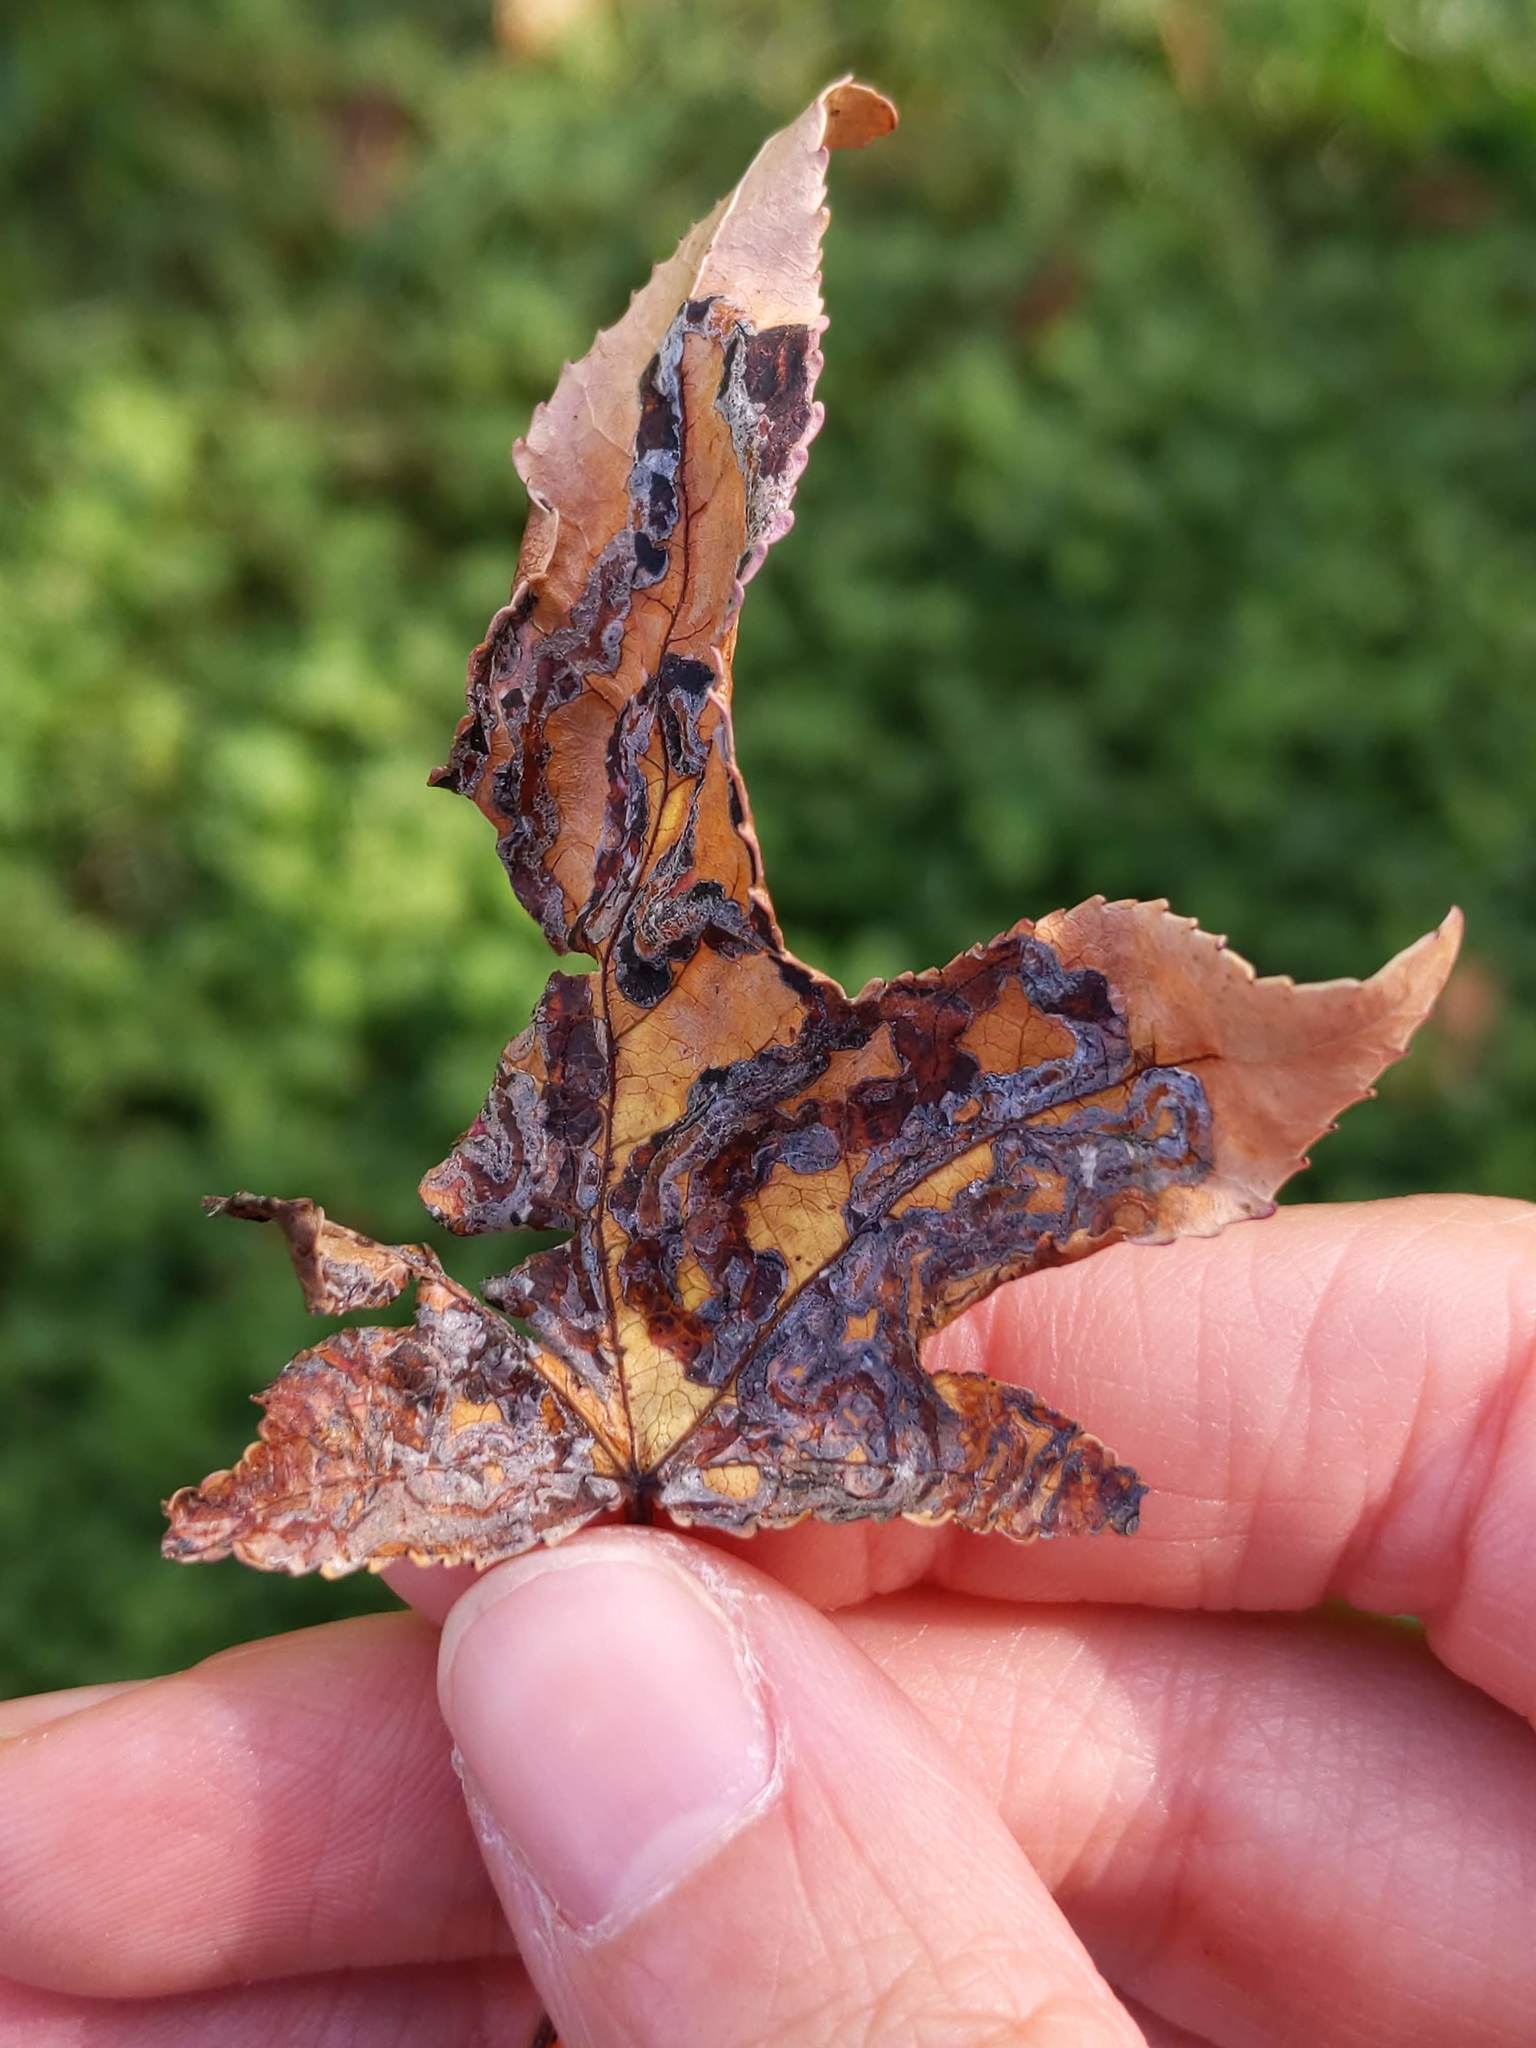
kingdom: Animalia
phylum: Arthropoda
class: Insecta
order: Lepidoptera
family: Gracillariidae
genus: Phyllocnistis
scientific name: Phyllocnistis liquidambarisella
